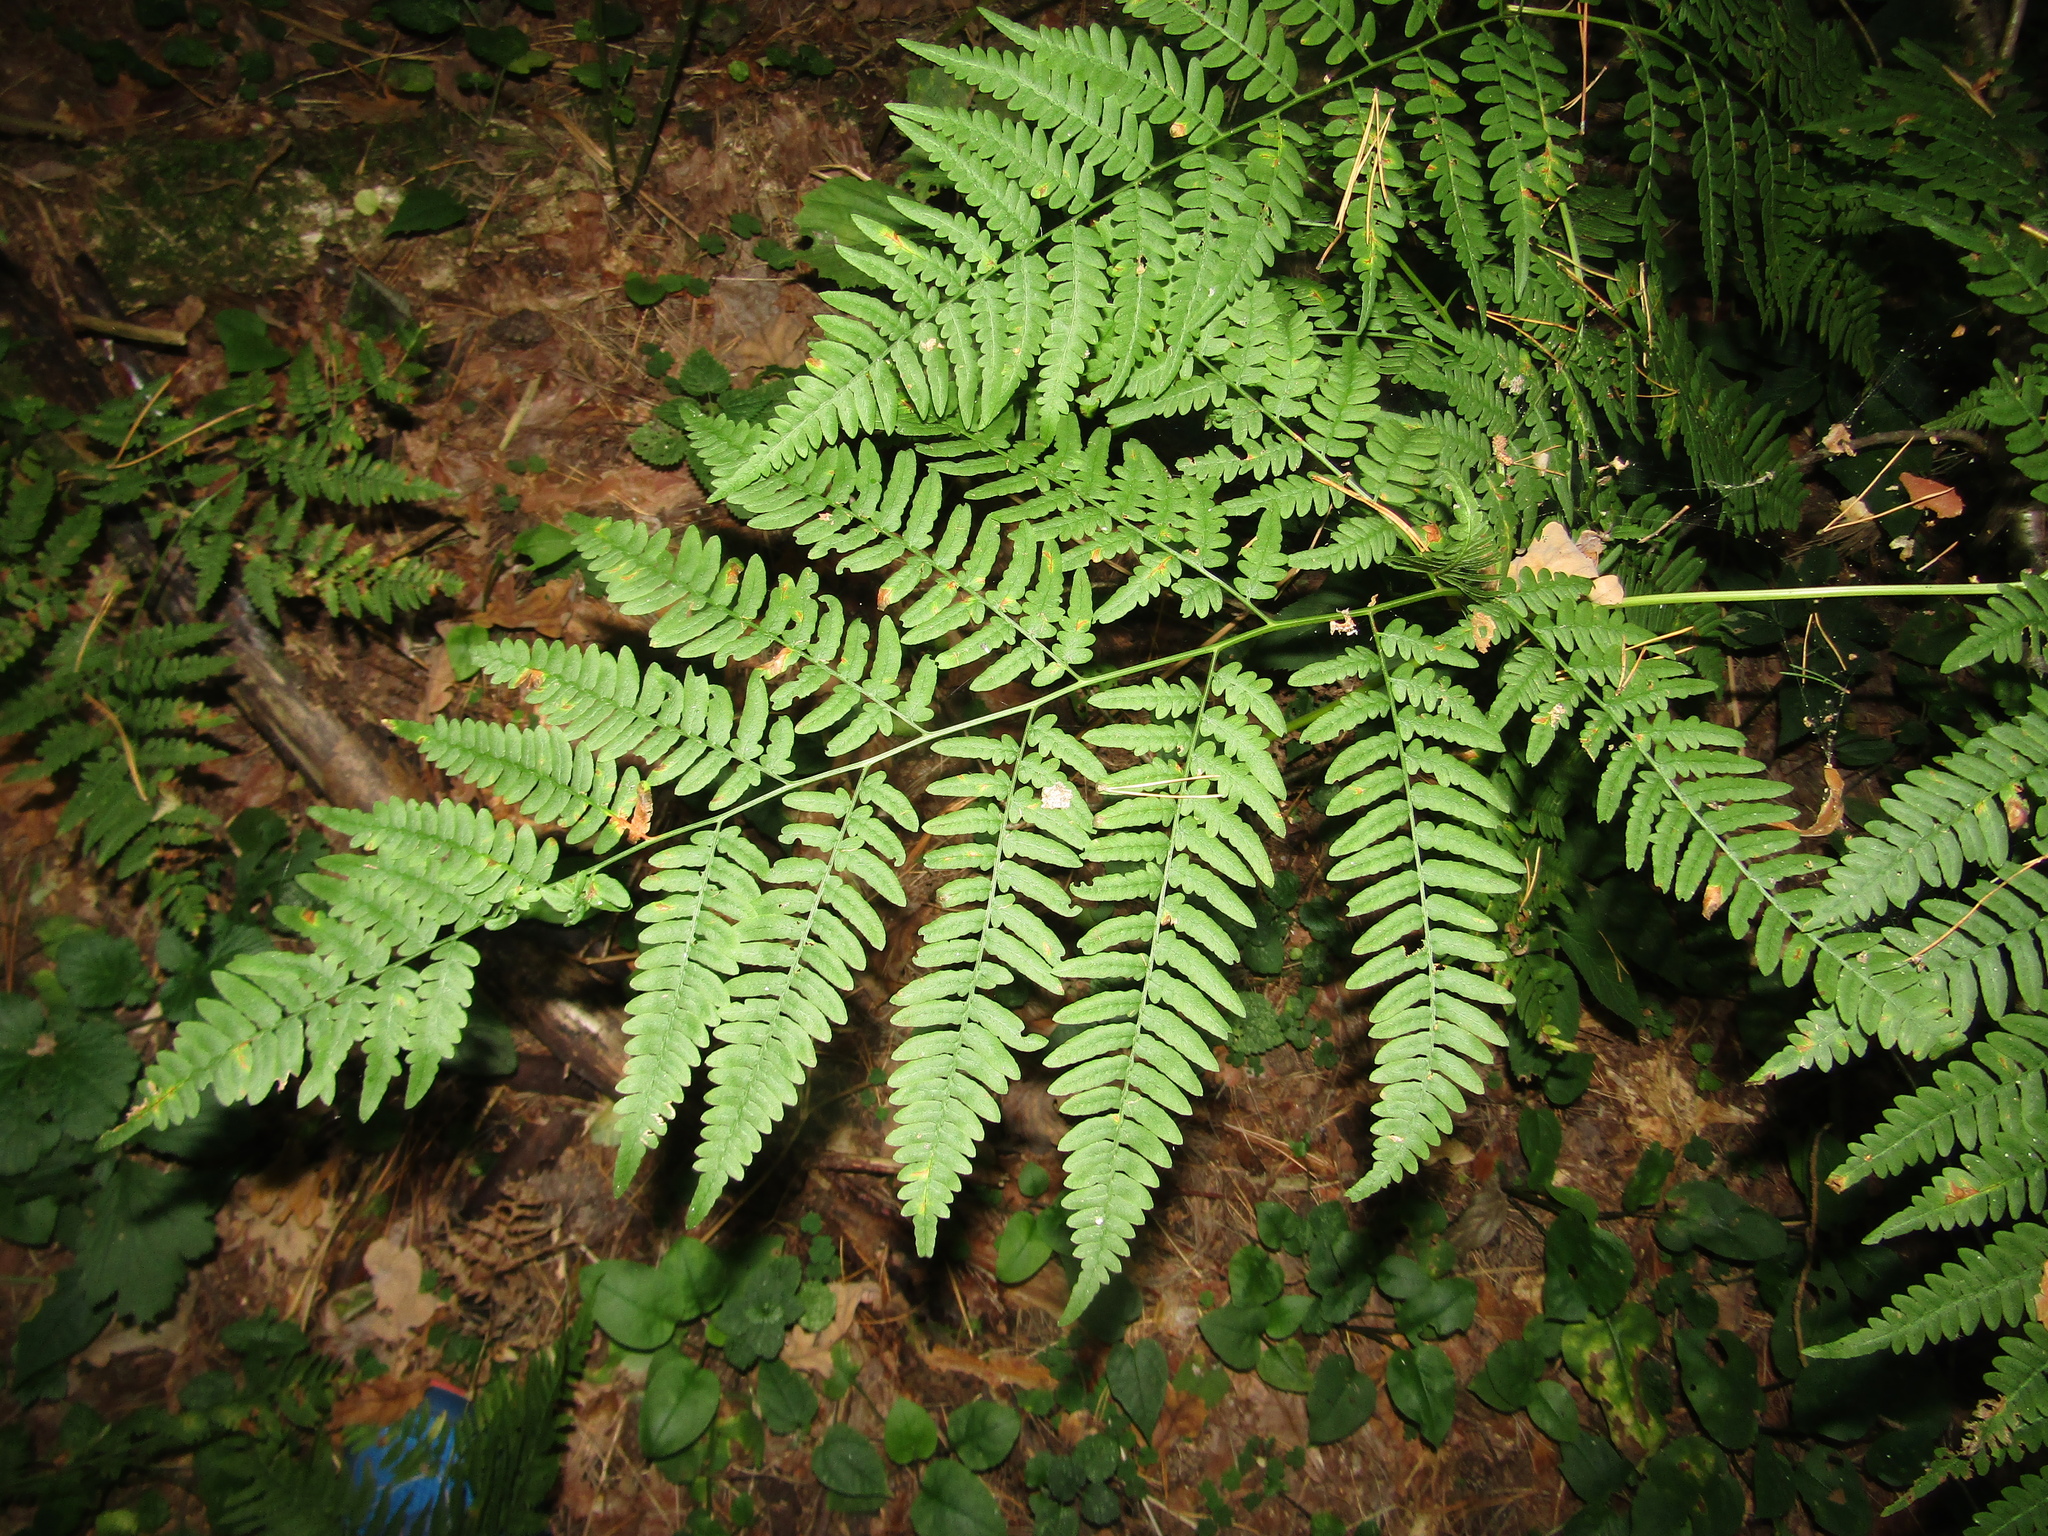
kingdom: Plantae
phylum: Tracheophyta
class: Polypodiopsida
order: Polypodiales
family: Dennstaedtiaceae
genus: Pteridium
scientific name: Pteridium aquilinum
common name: Bracken
